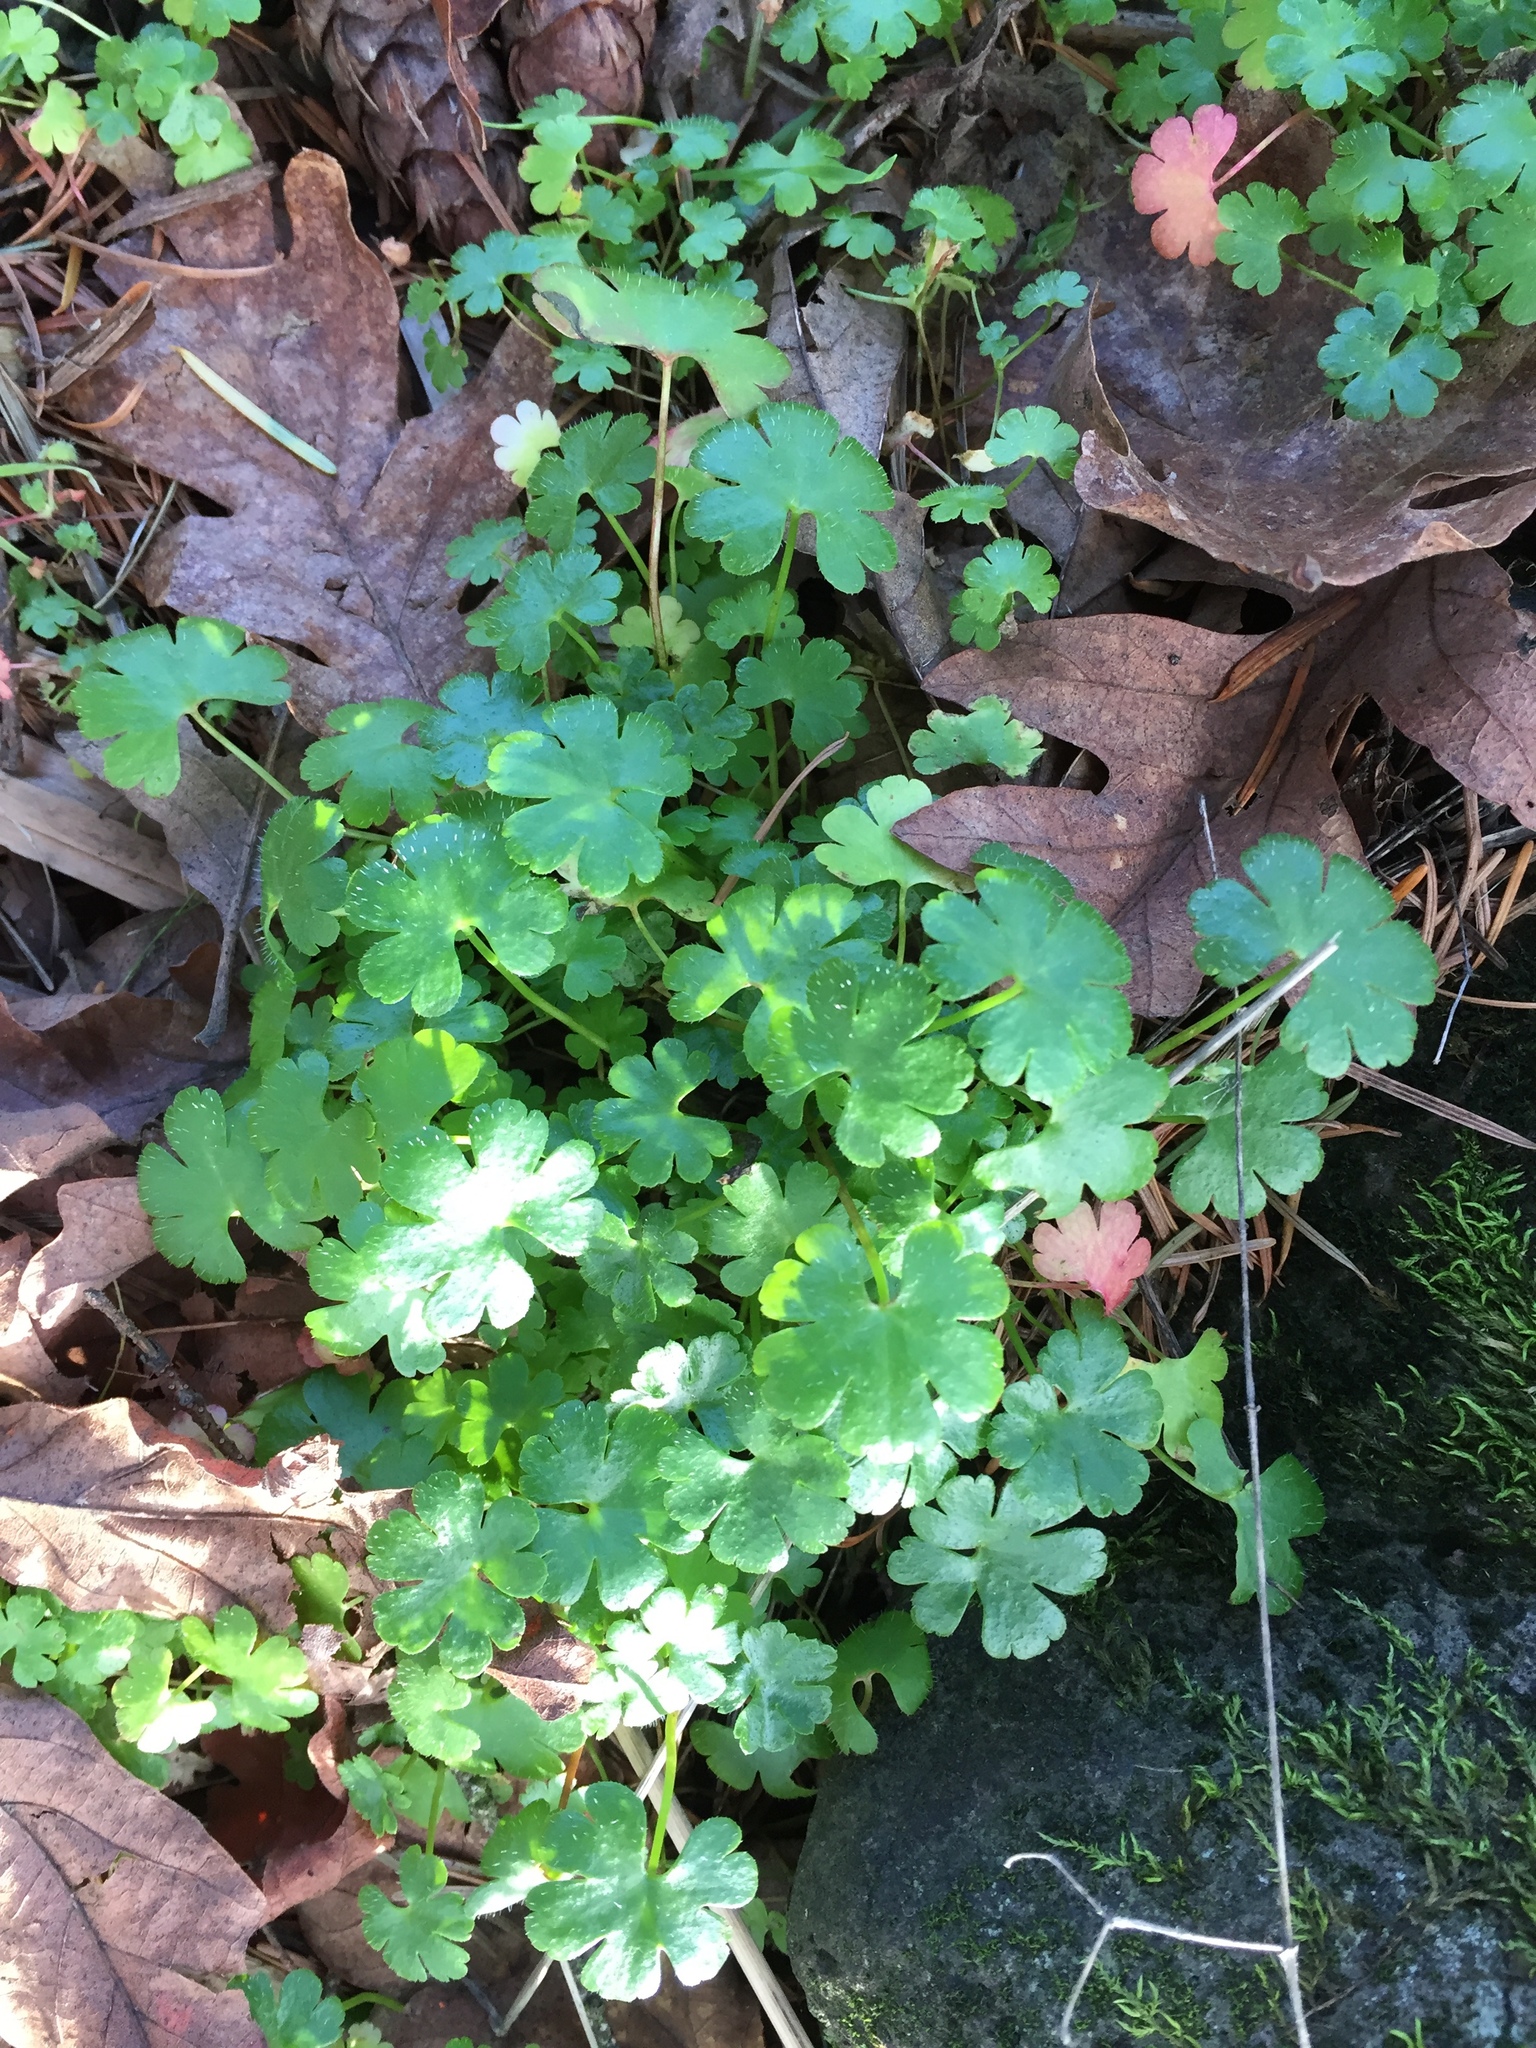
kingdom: Plantae
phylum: Tracheophyta
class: Magnoliopsida
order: Geraniales
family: Geraniaceae
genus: Geranium
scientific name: Geranium lucidum
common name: Shining crane's-bill
